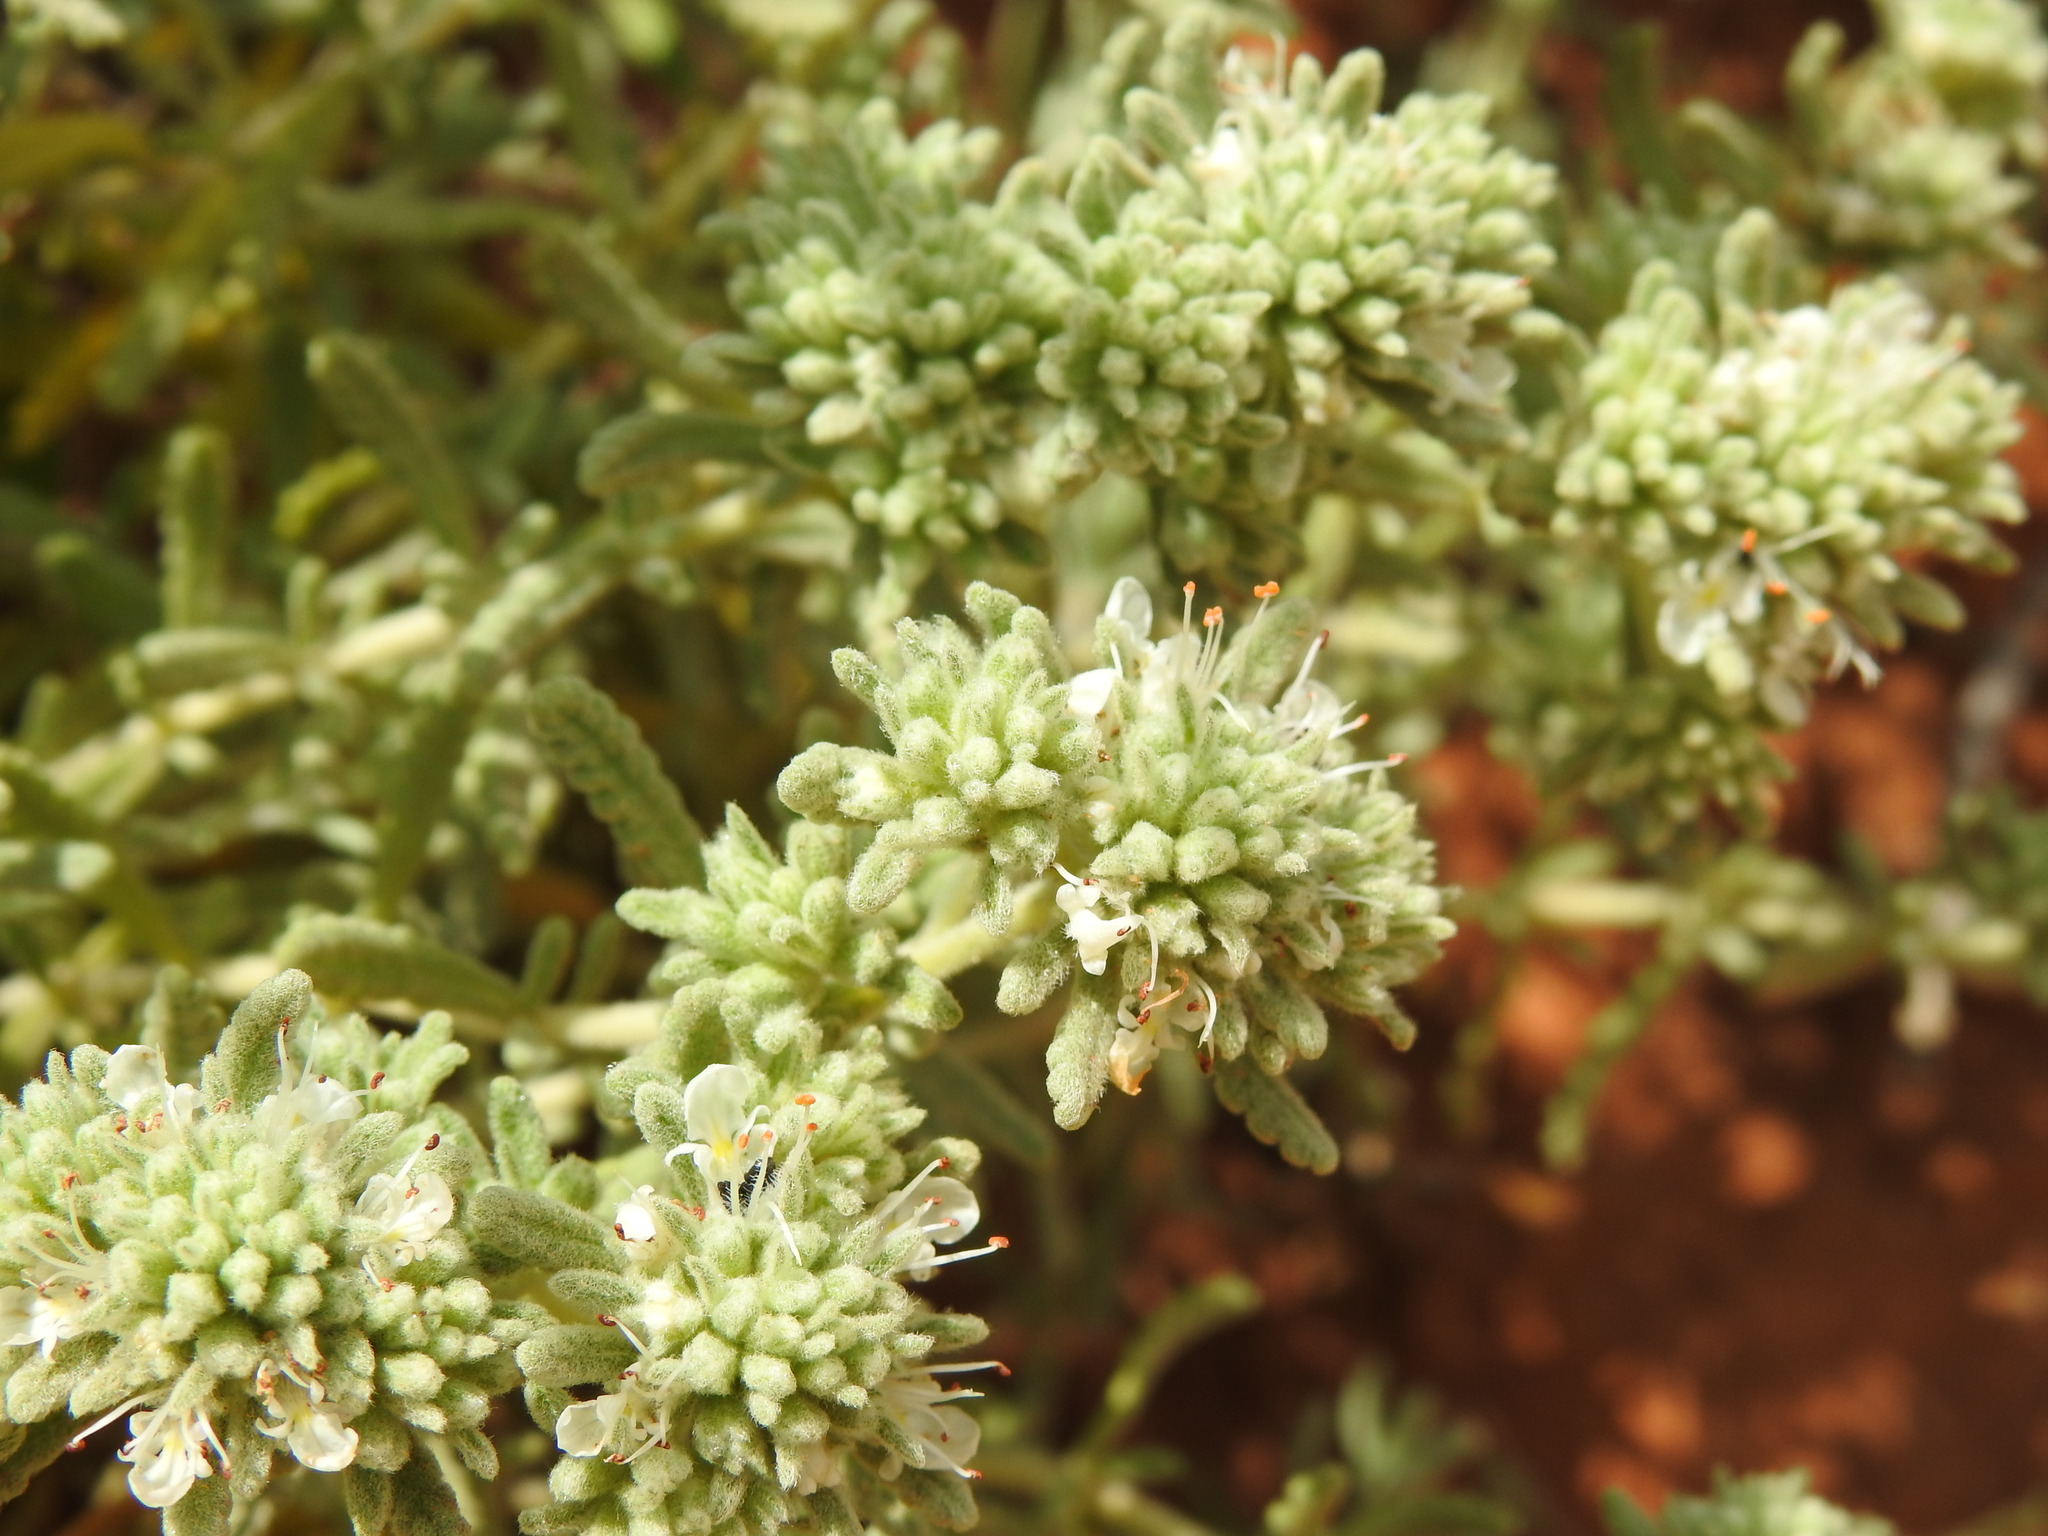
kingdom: Plantae
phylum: Tracheophyta
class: Magnoliopsida
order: Lamiales
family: Lamiaceae
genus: Teucrium
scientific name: Teucrium vincentinum
